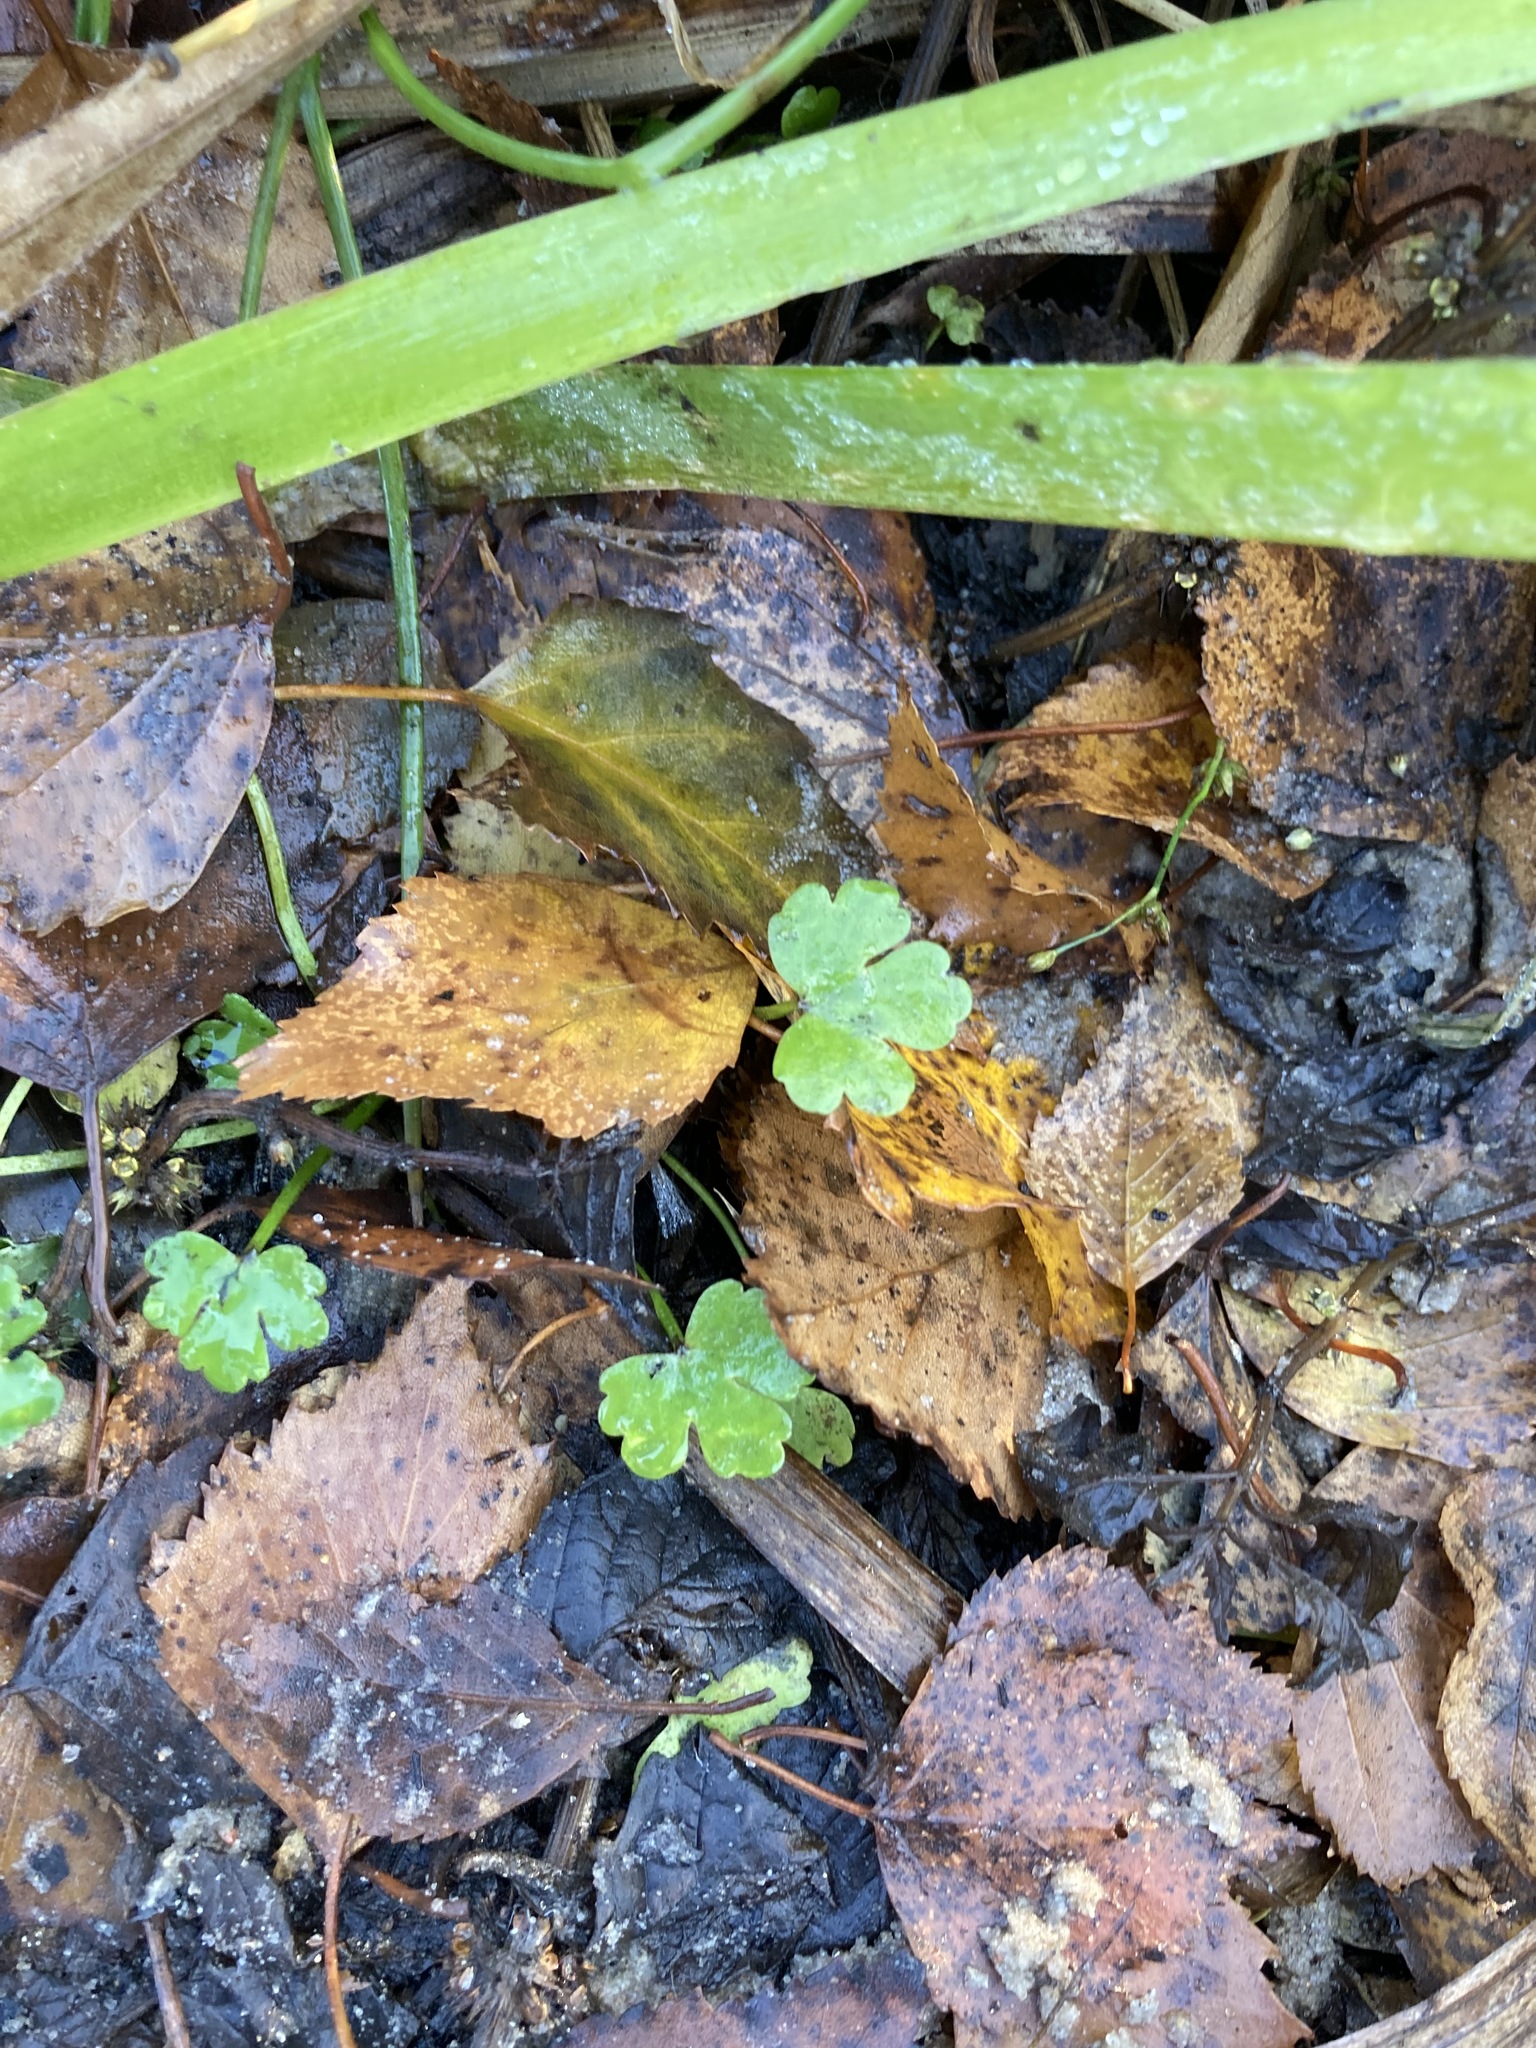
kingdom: Plantae
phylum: Tracheophyta
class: Magnoliopsida
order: Ranunculales
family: Ranunculaceae
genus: Ranunculus
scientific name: Ranunculus sceleratus
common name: Celery-leaved buttercup
